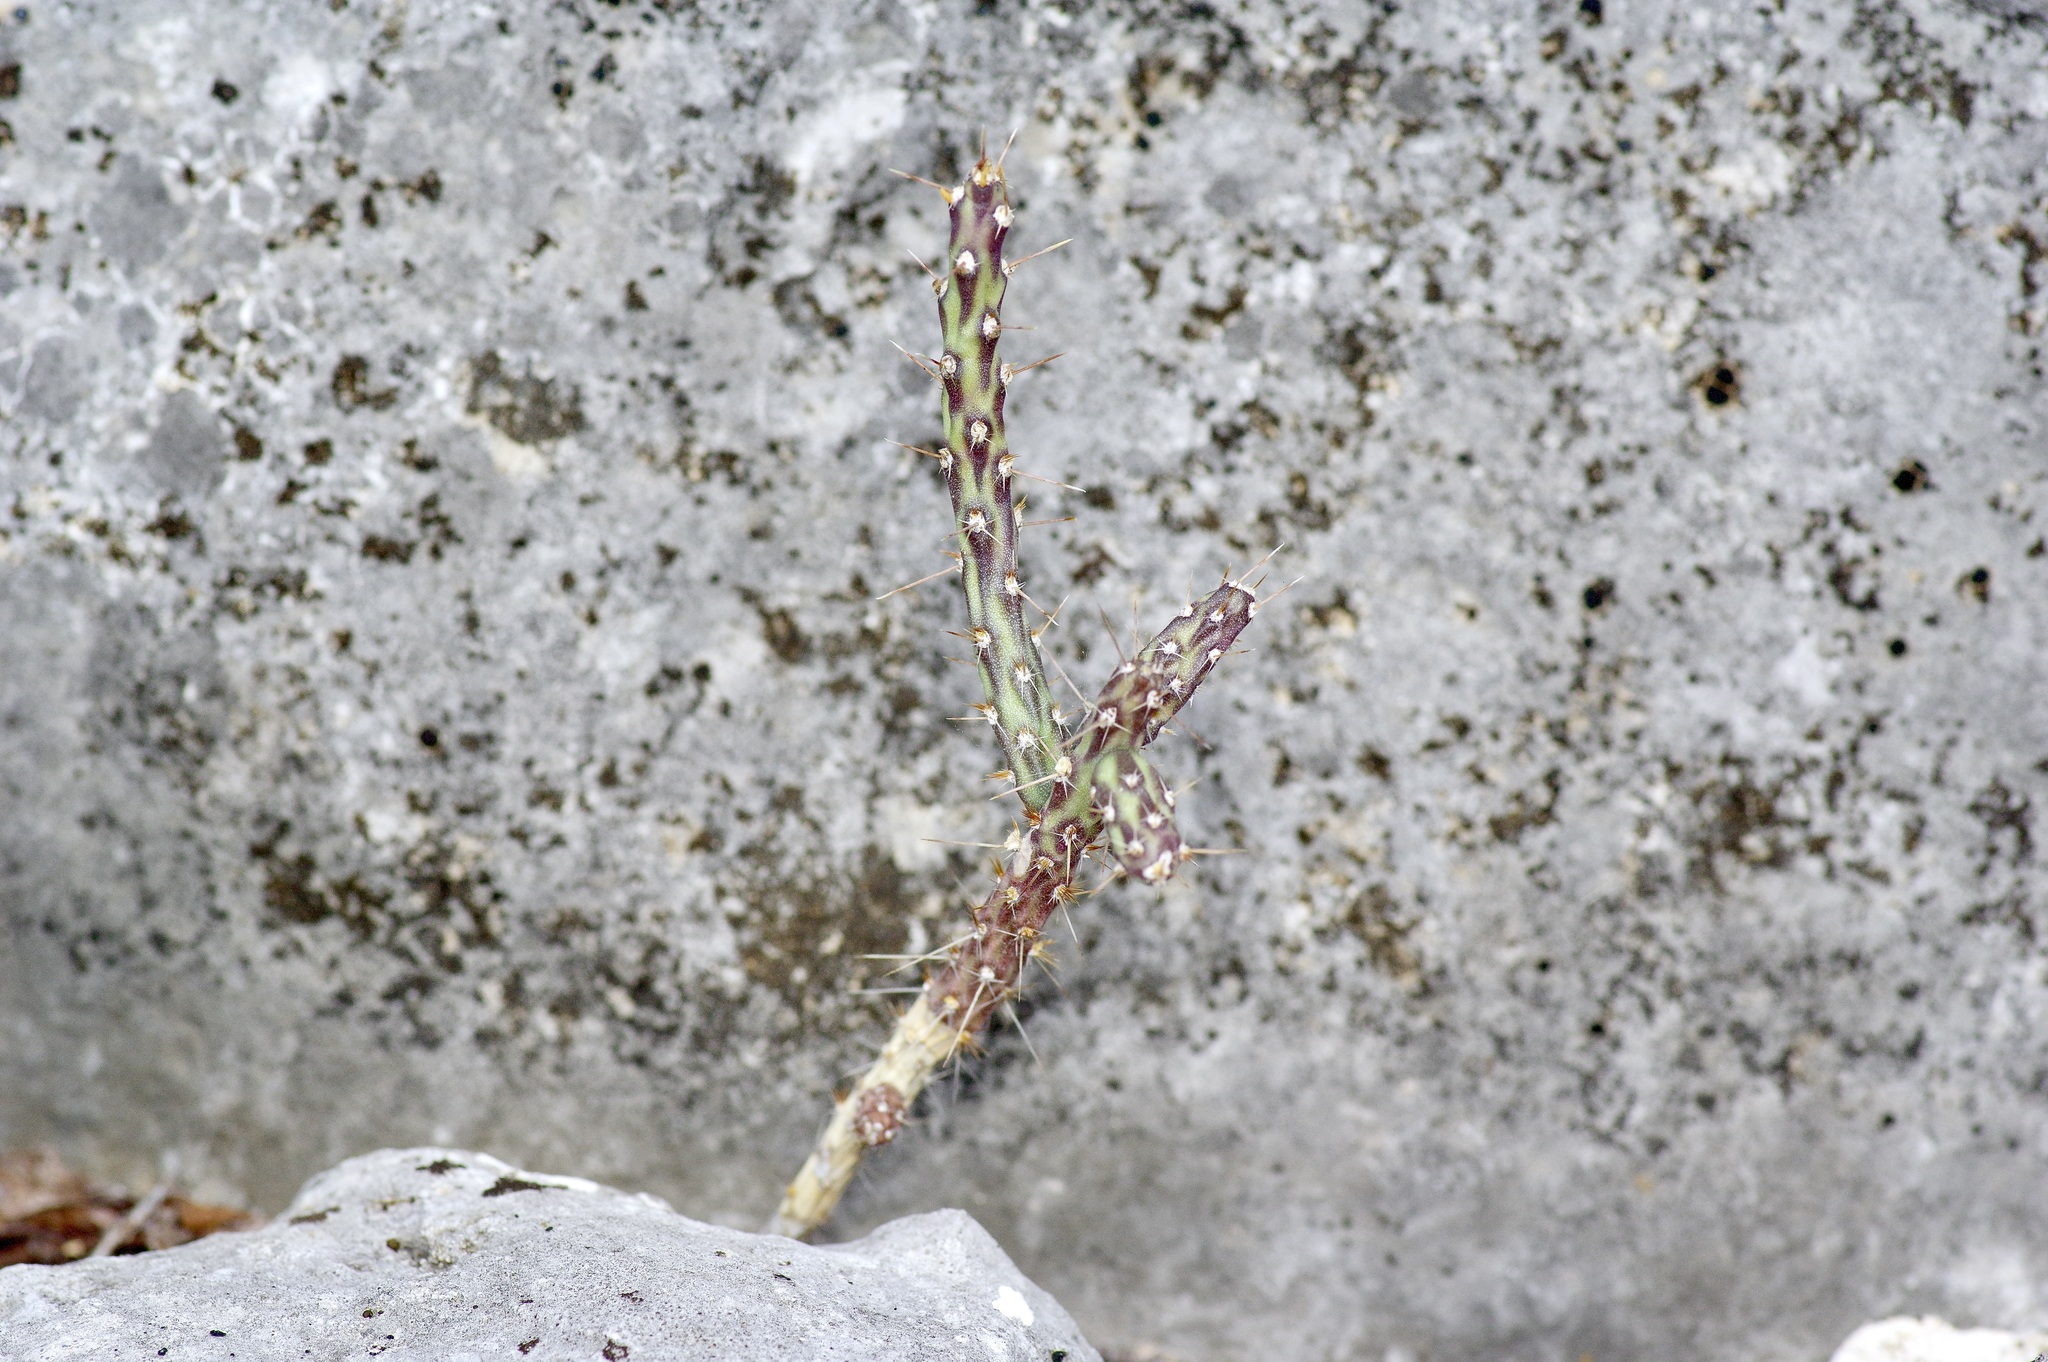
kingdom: Plantae
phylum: Tracheophyta
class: Magnoliopsida
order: Caryophyllales
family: Cactaceae
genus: Cylindropuntia
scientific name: Cylindropuntia leptocaulis
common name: Christmas cactus
